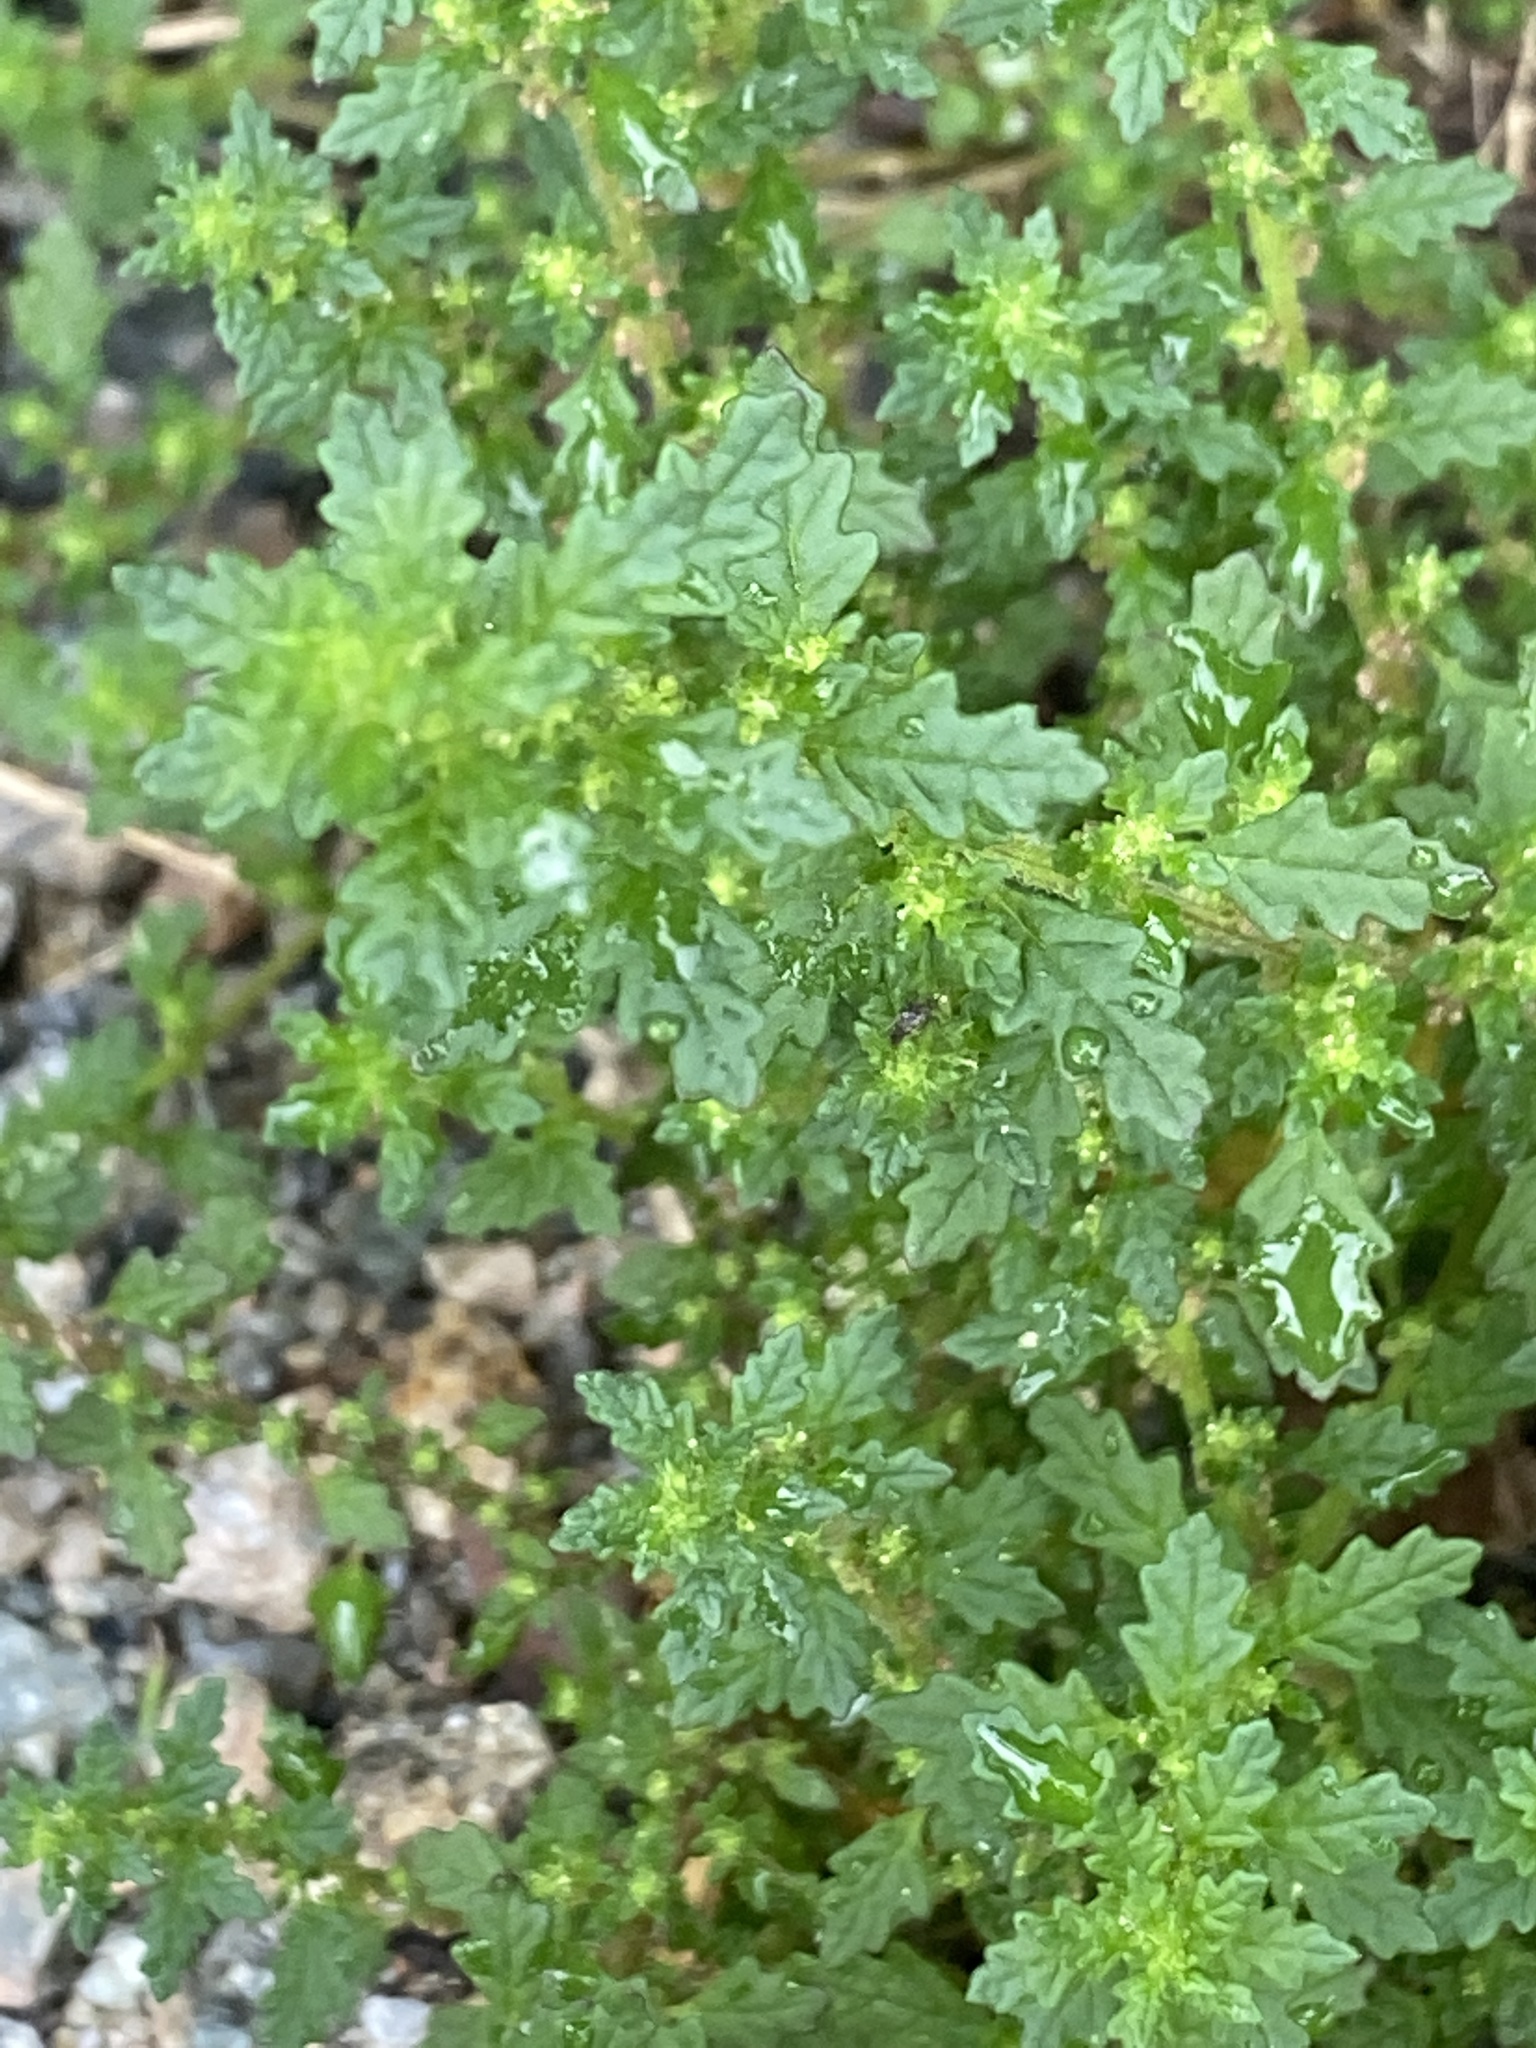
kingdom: Plantae
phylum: Tracheophyta
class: Magnoliopsida
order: Caryophyllales
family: Amaranthaceae
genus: Dysphania
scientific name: Dysphania pumilio
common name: Clammy goosefoot
